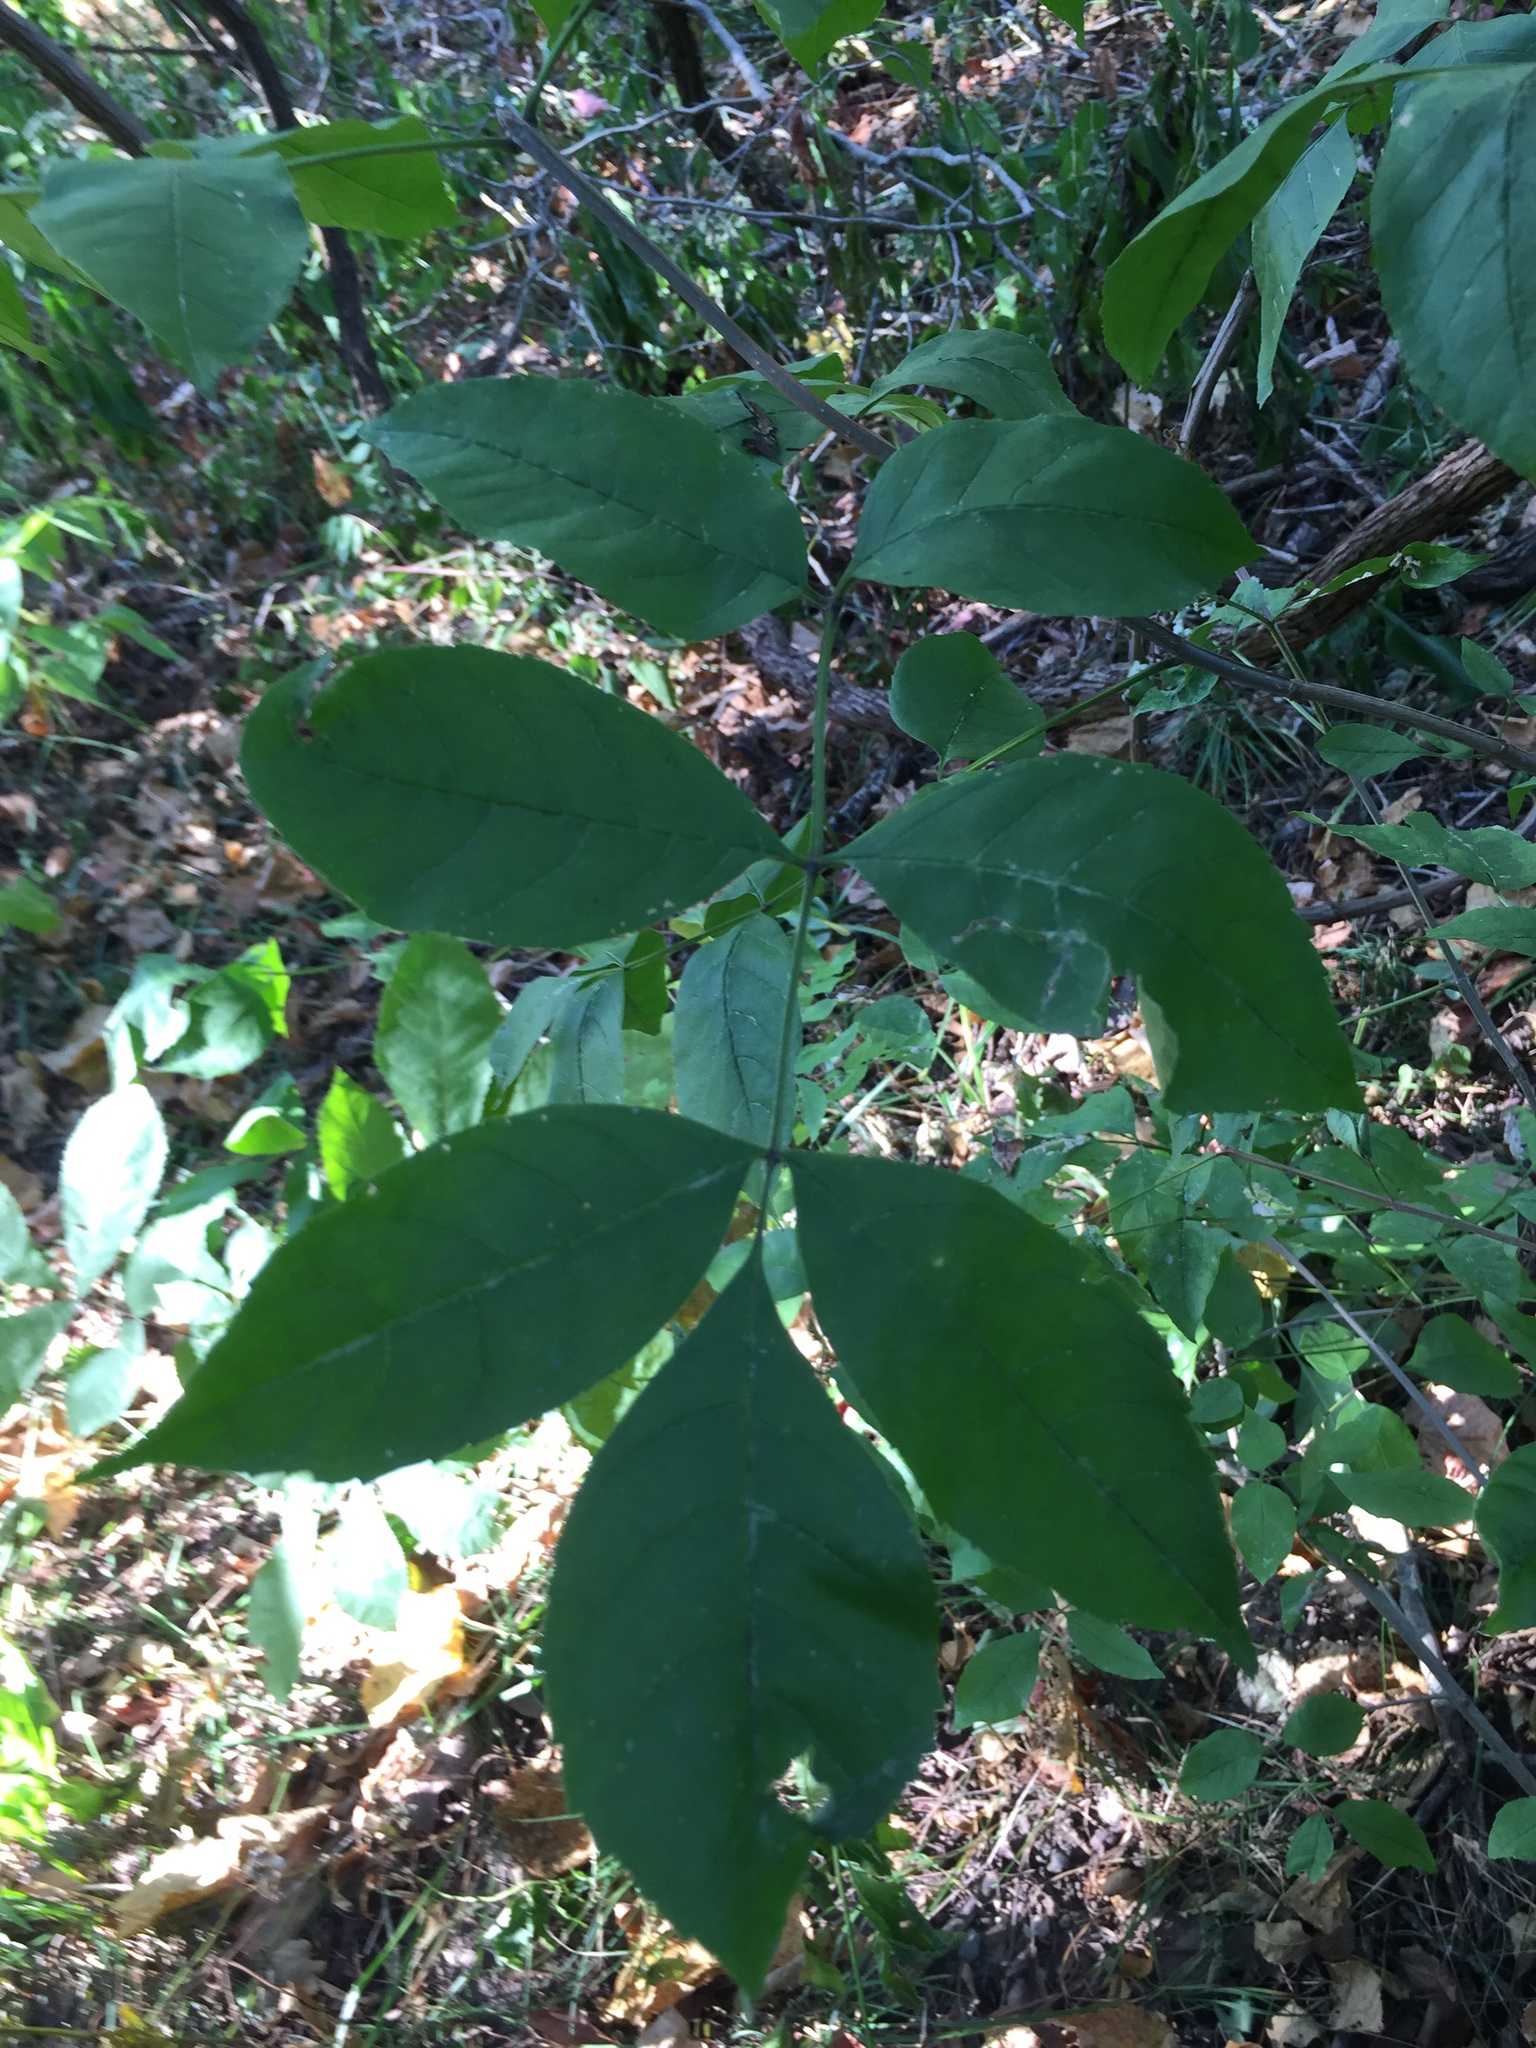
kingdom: Plantae
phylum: Tracheophyta
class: Magnoliopsida
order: Lamiales
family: Oleaceae
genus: Fraxinus
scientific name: Fraxinus quadrangulata
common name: Blue ash
